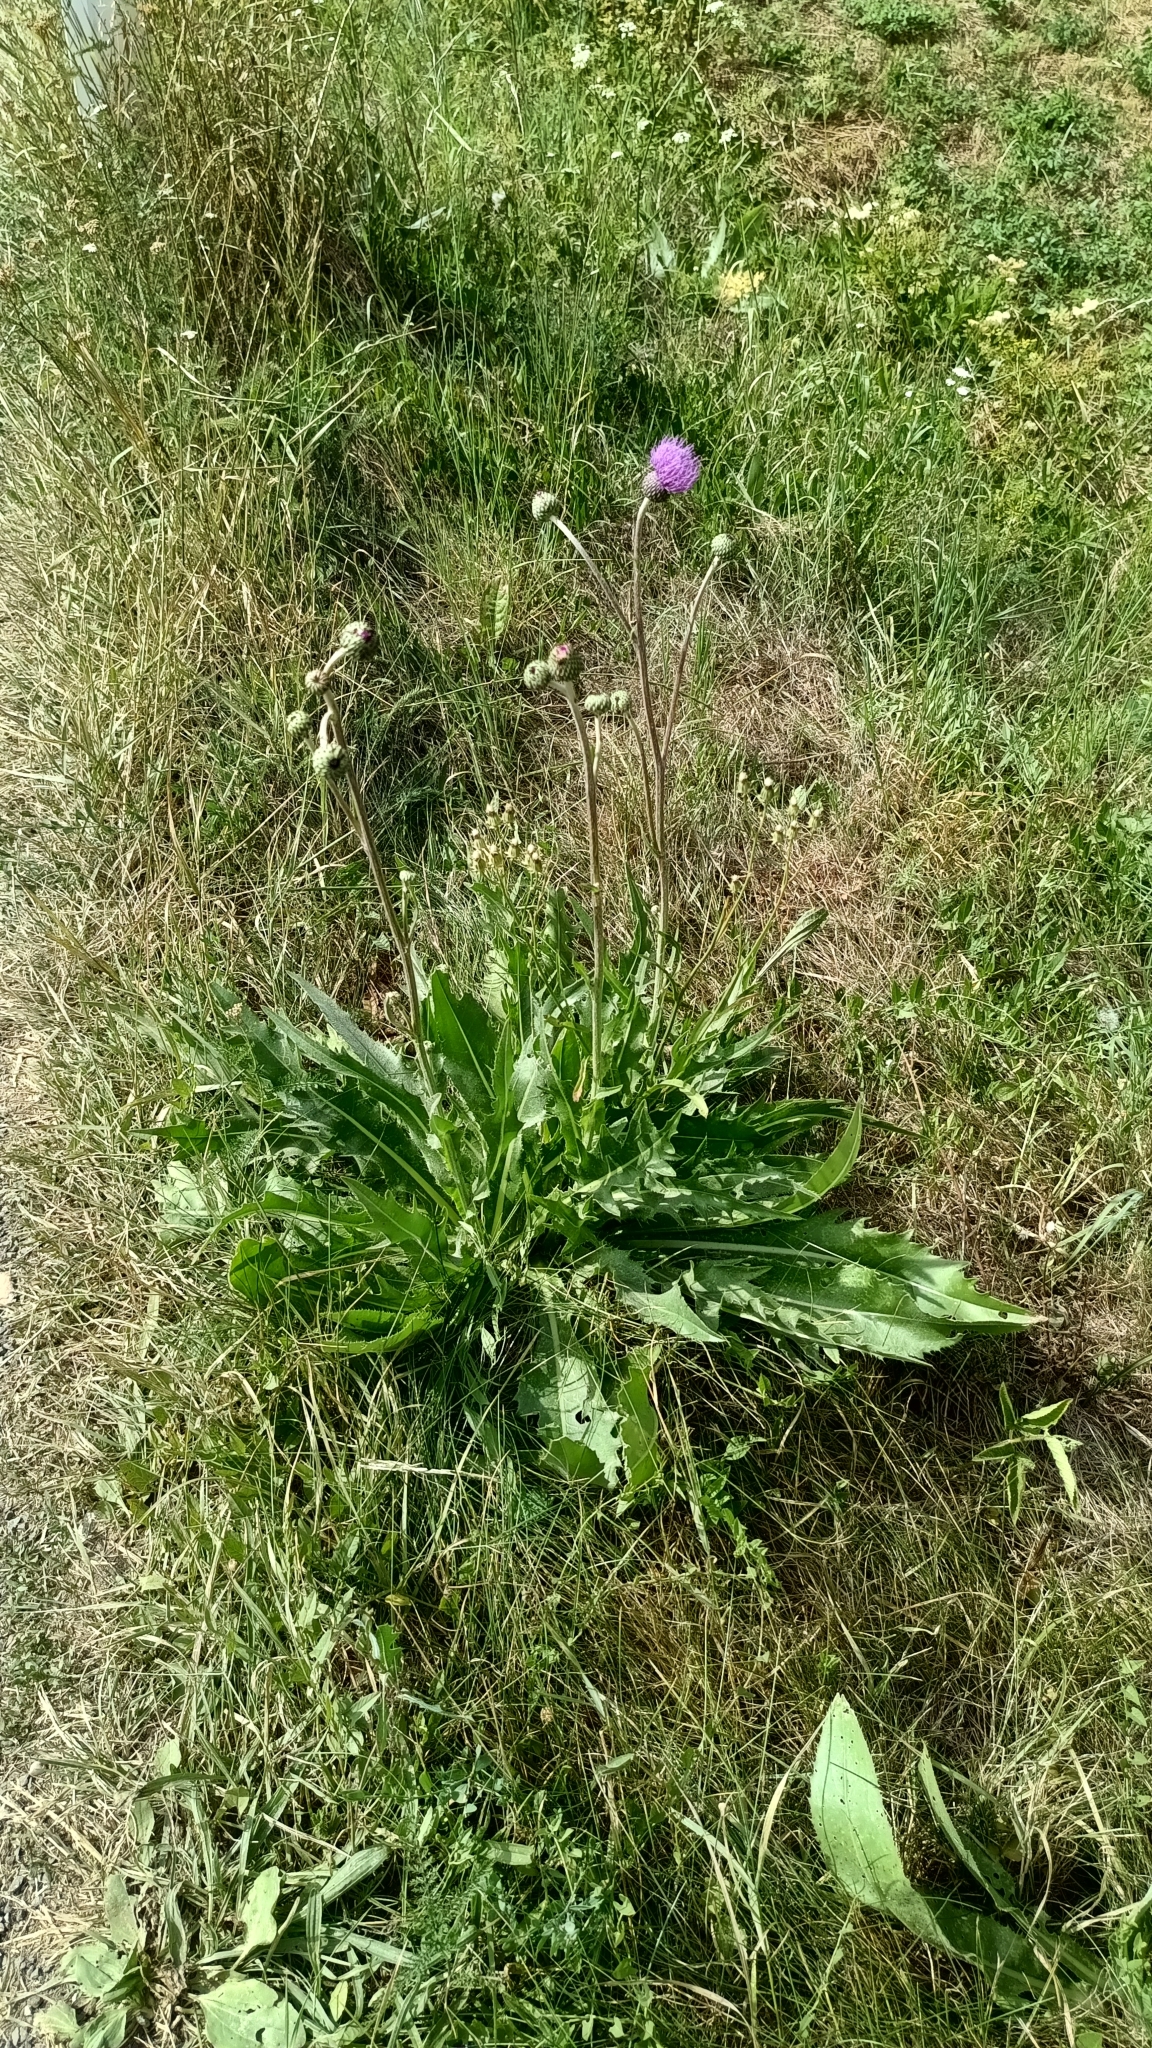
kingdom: Plantae
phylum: Tracheophyta
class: Magnoliopsida
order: Asterales
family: Asteraceae
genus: Cirsium
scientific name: Cirsium canum
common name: Queen anne's thistle
